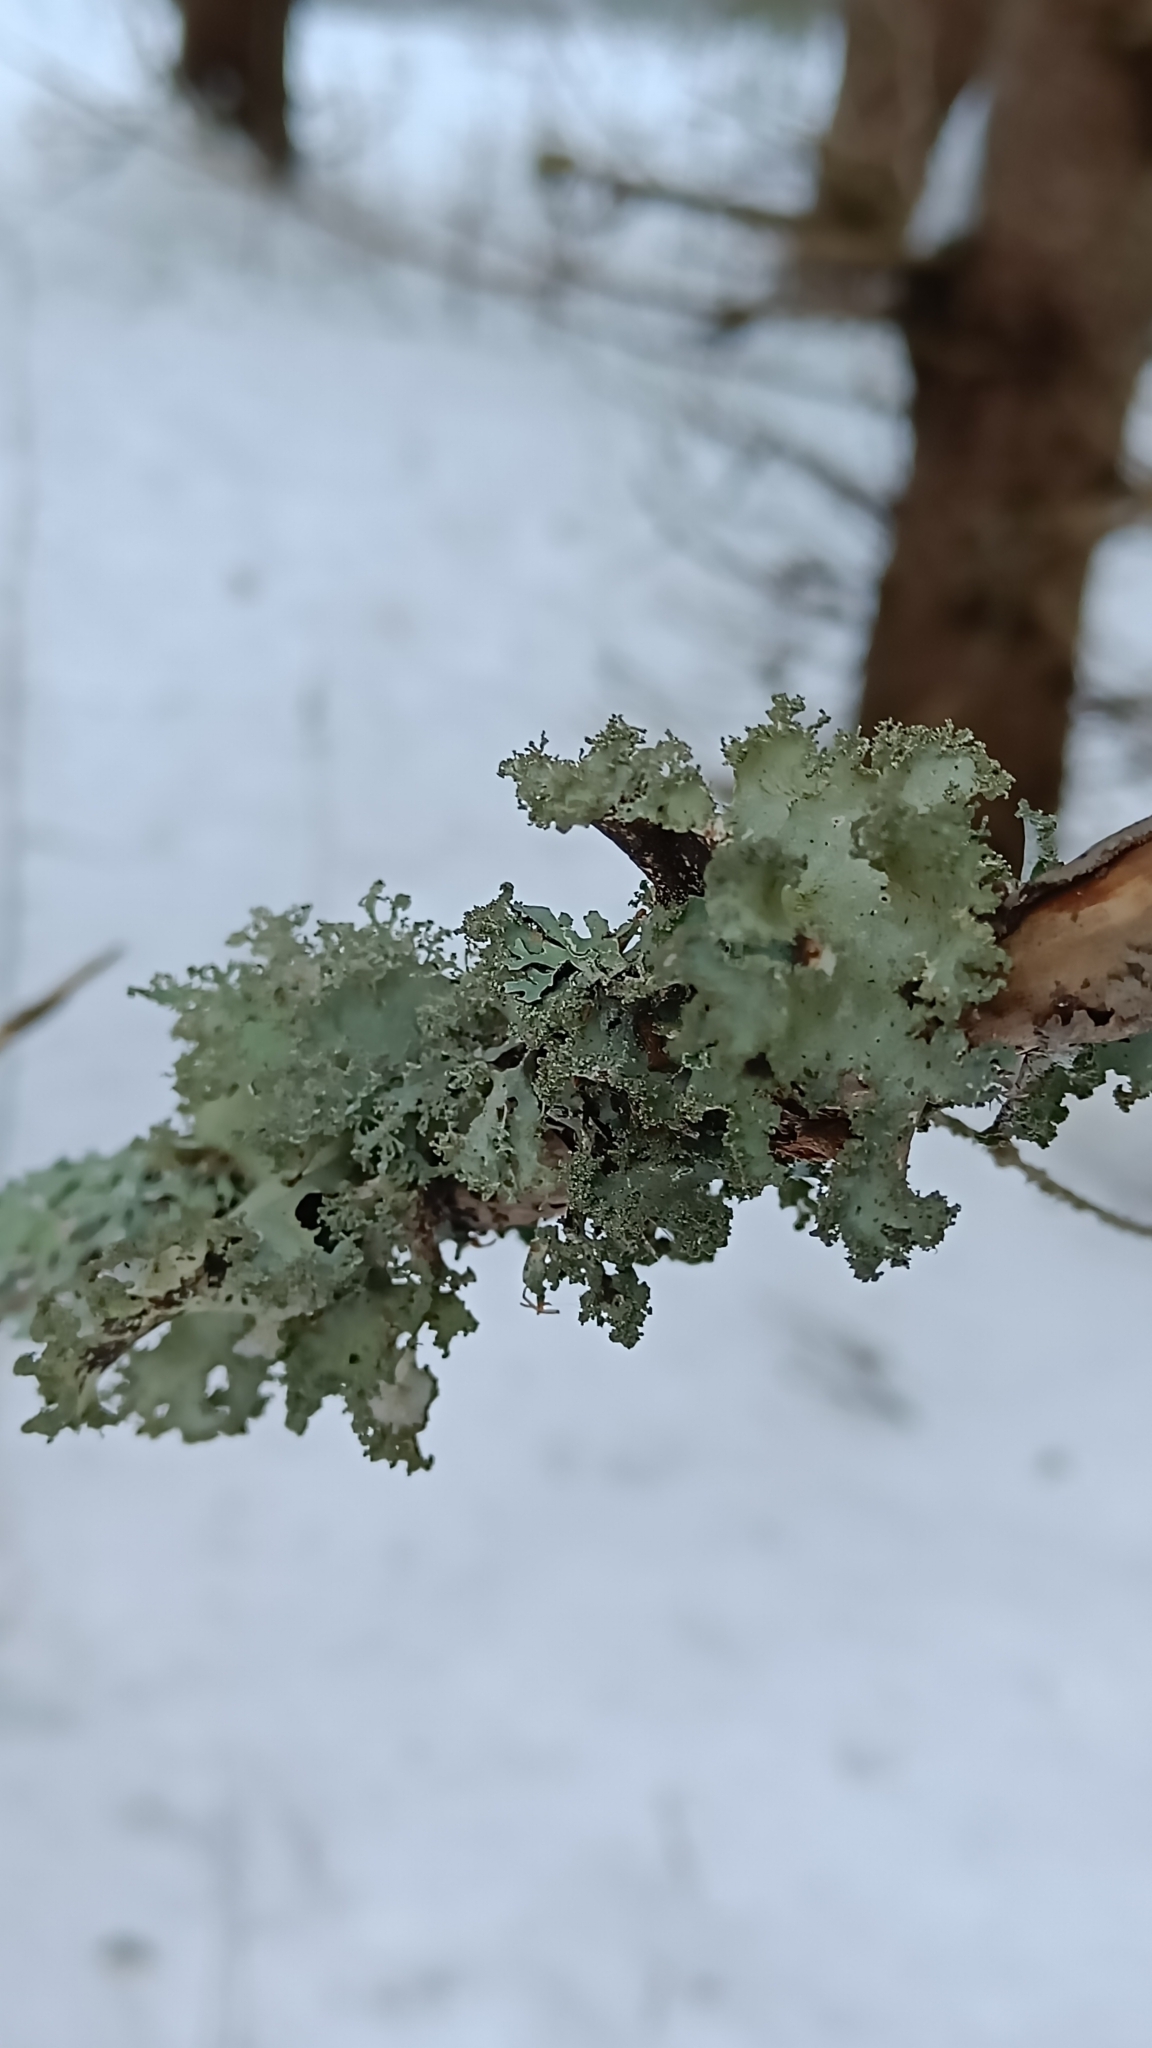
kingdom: Fungi
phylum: Ascomycota
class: Lecanoromycetes
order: Lecanorales
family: Parmeliaceae
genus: Platismatia
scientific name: Platismatia glauca
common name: Varied rag lichen
